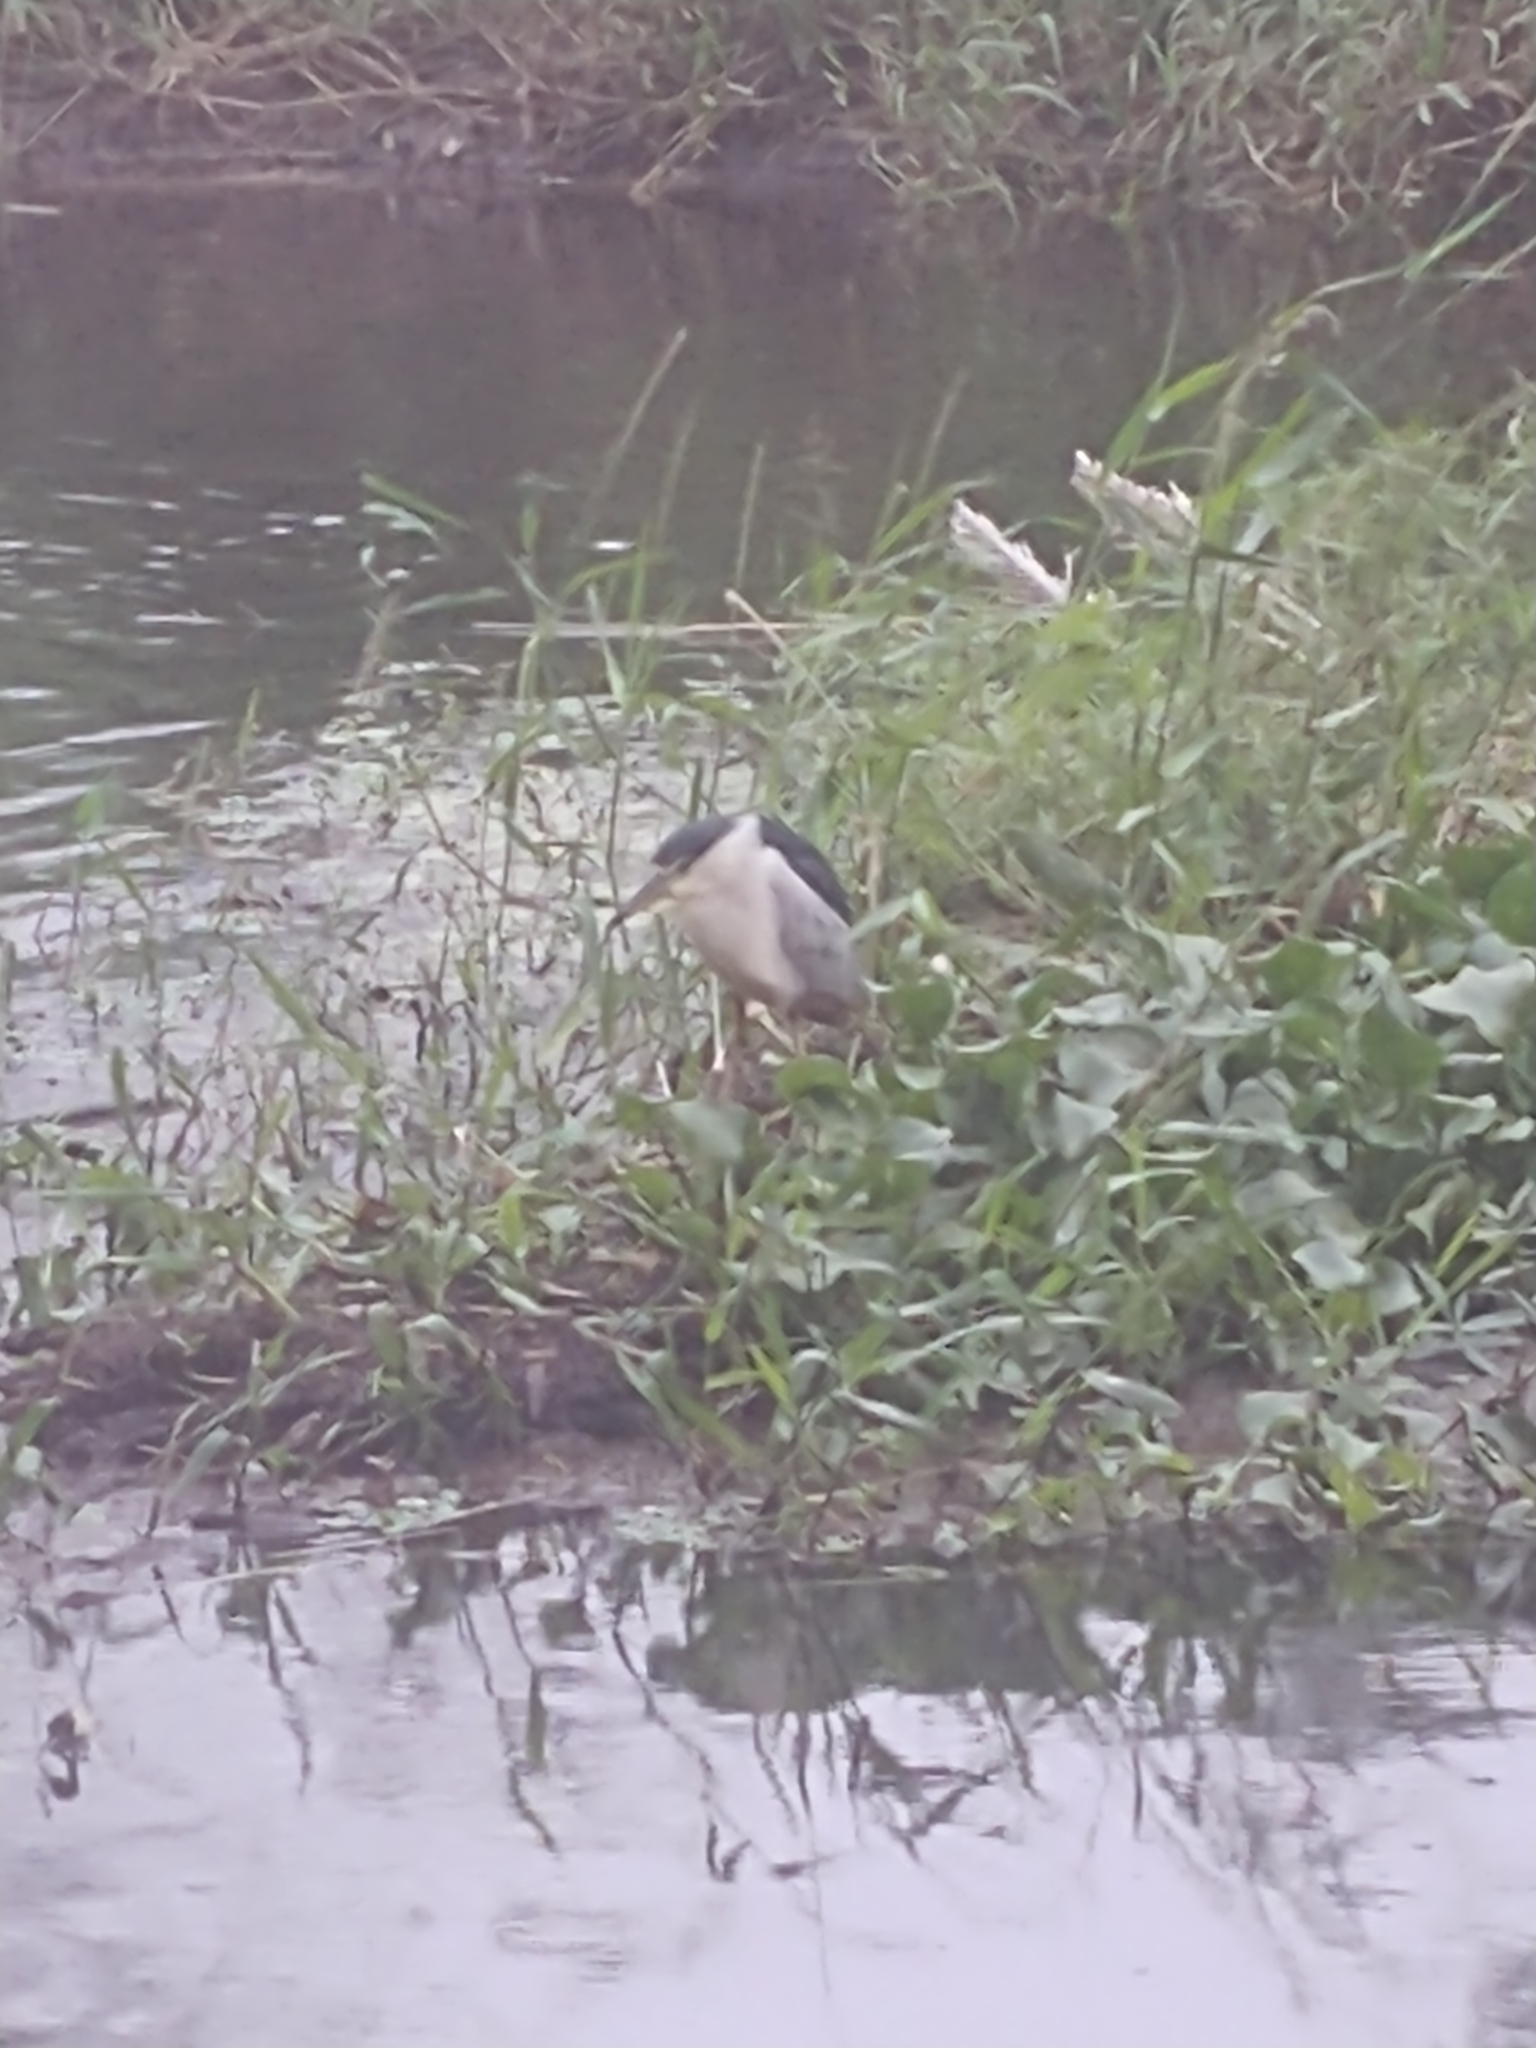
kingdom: Animalia
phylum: Chordata
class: Aves
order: Pelecaniformes
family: Ardeidae
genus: Nycticorax
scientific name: Nycticorax nycticorax
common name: Black-crowned night heron
